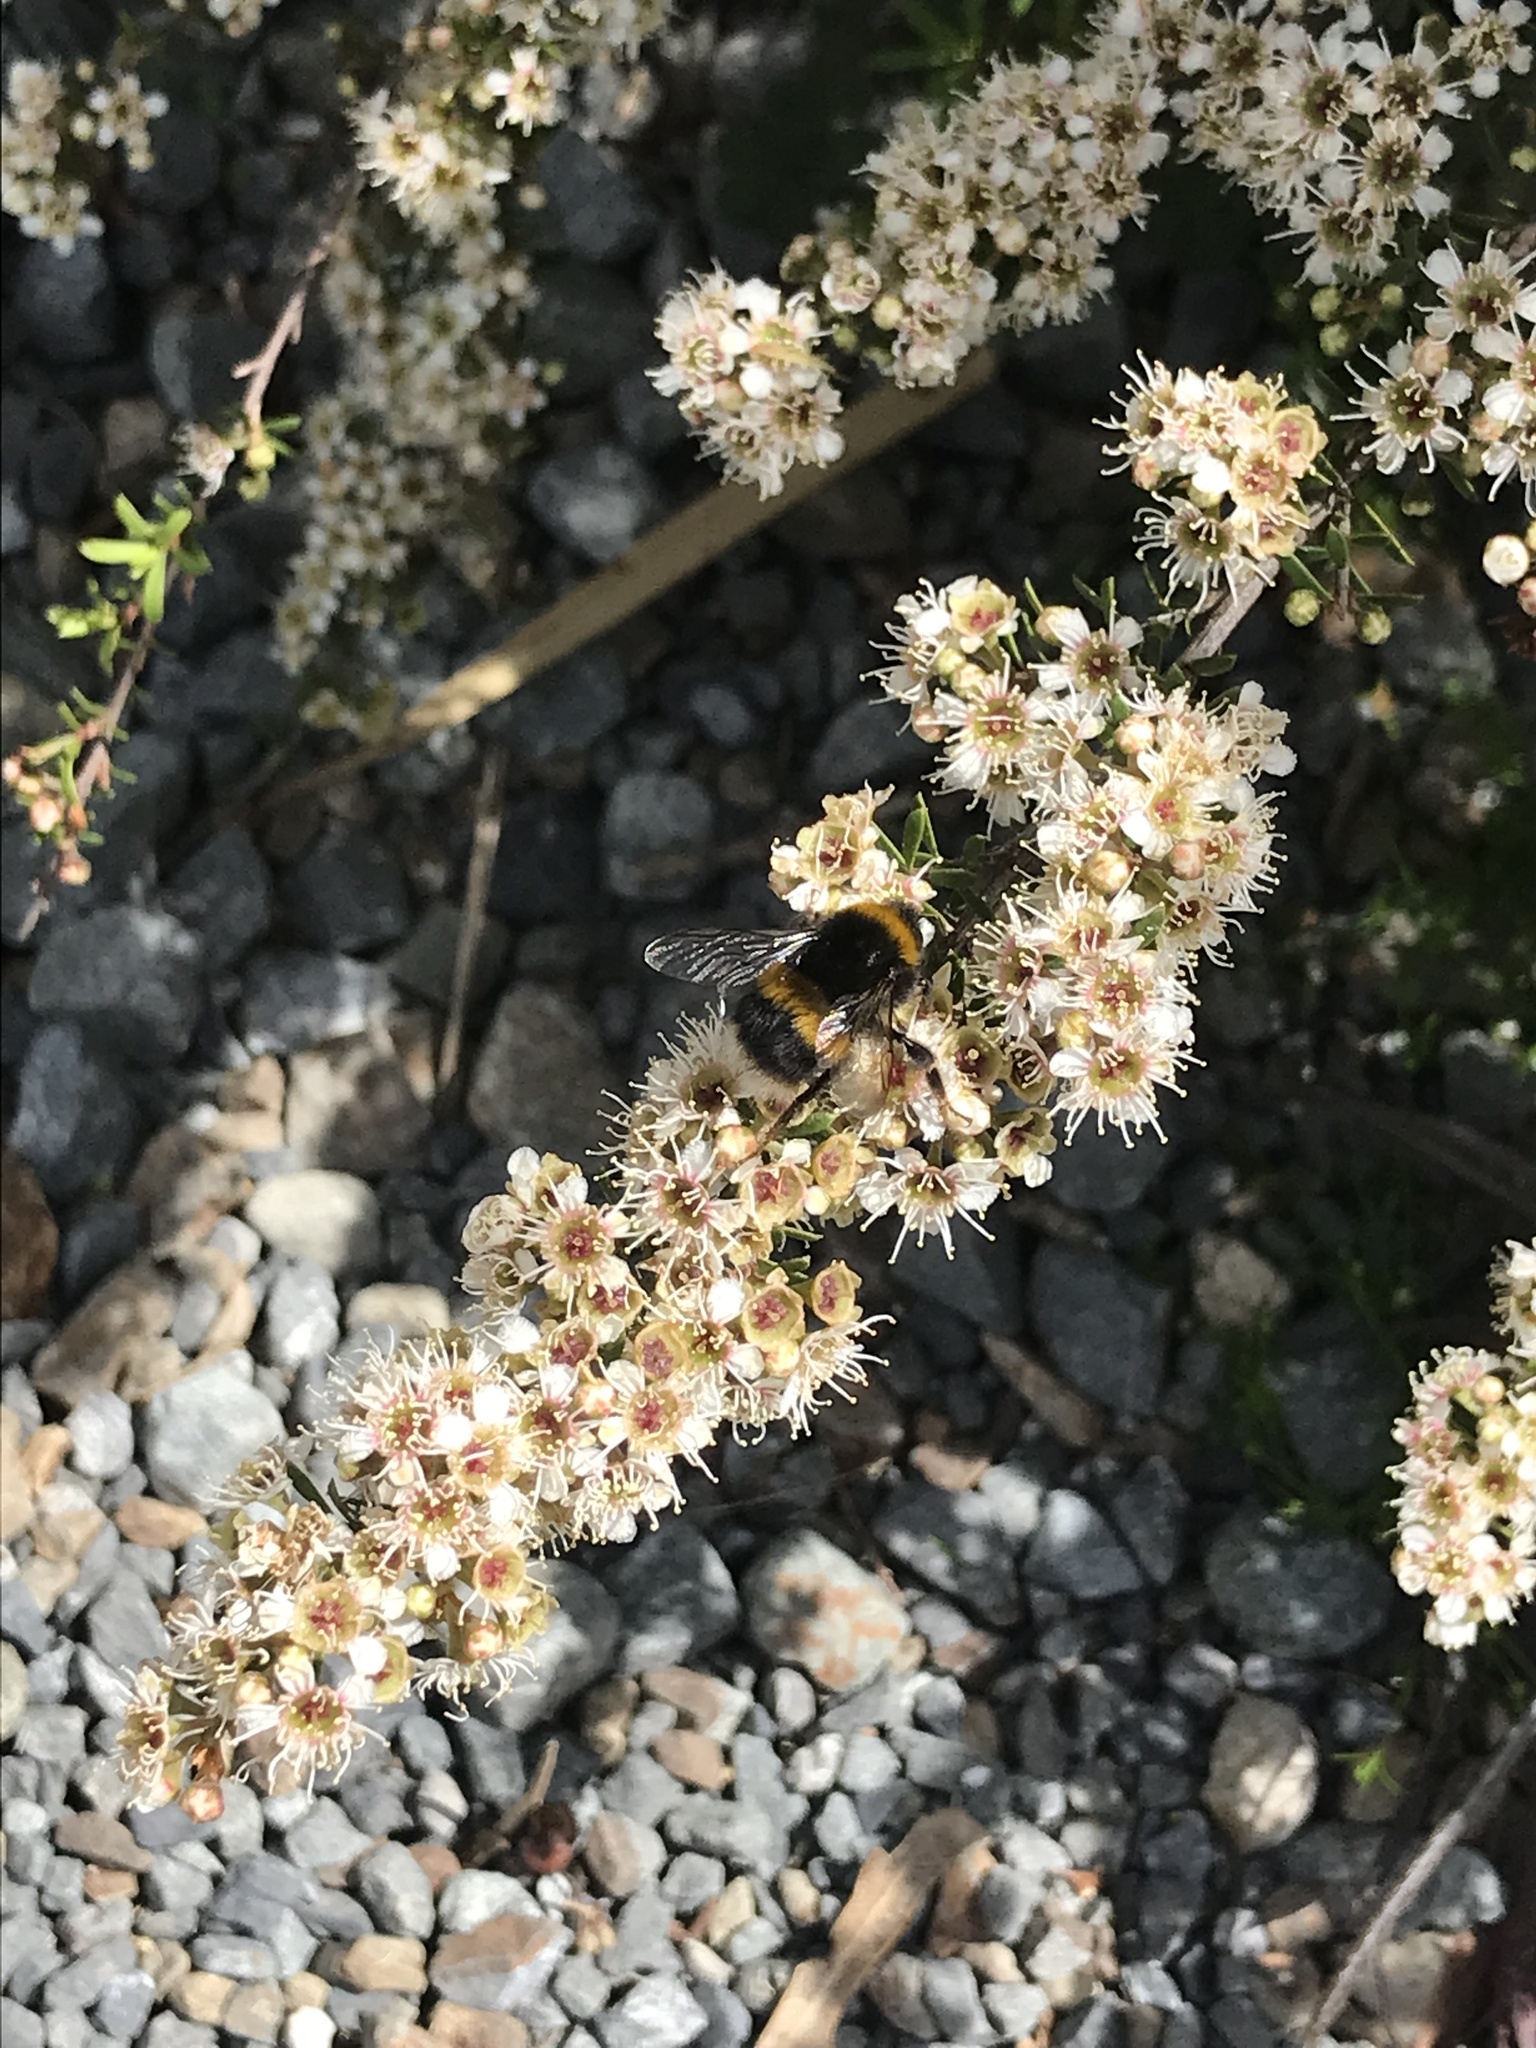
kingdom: Animalia
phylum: Arthropoda
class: Insecta
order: Hymenoptera
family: Apidae
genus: Bombus
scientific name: Bombus terrestris
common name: Buff-tailed bumblebee
